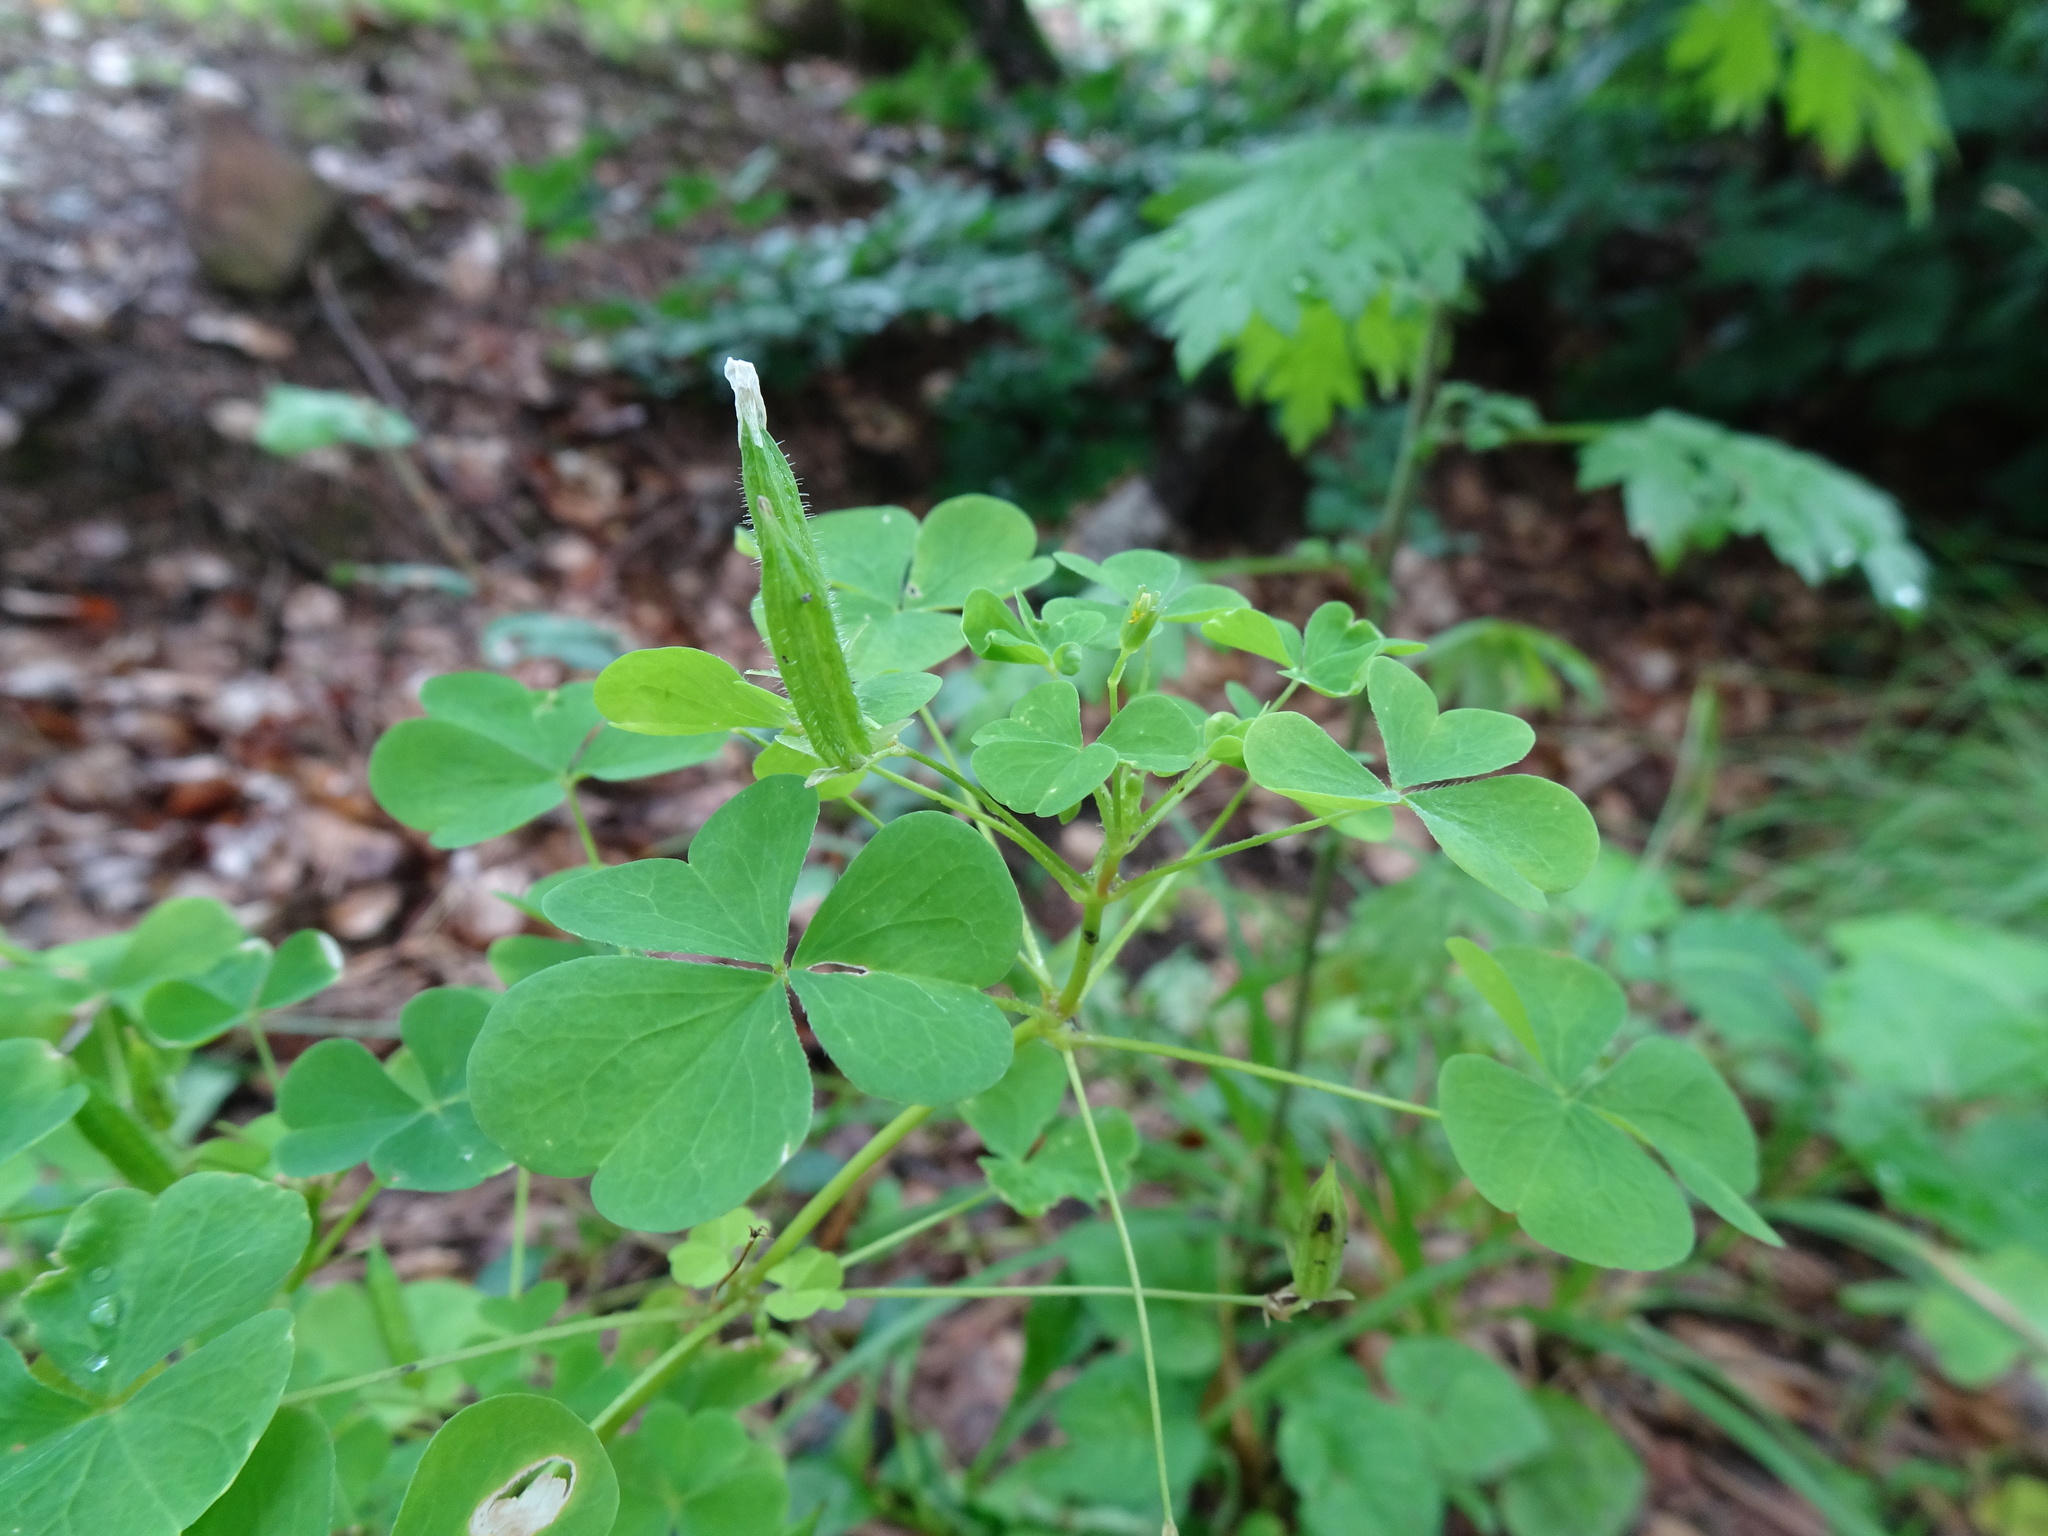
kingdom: Plantae
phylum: Tracheophyta
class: Magnoliopsida
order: Oxalidales
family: Oxalidaceae
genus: Oxalis
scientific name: Oxalis stricta
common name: Upright yellow-sorrel
